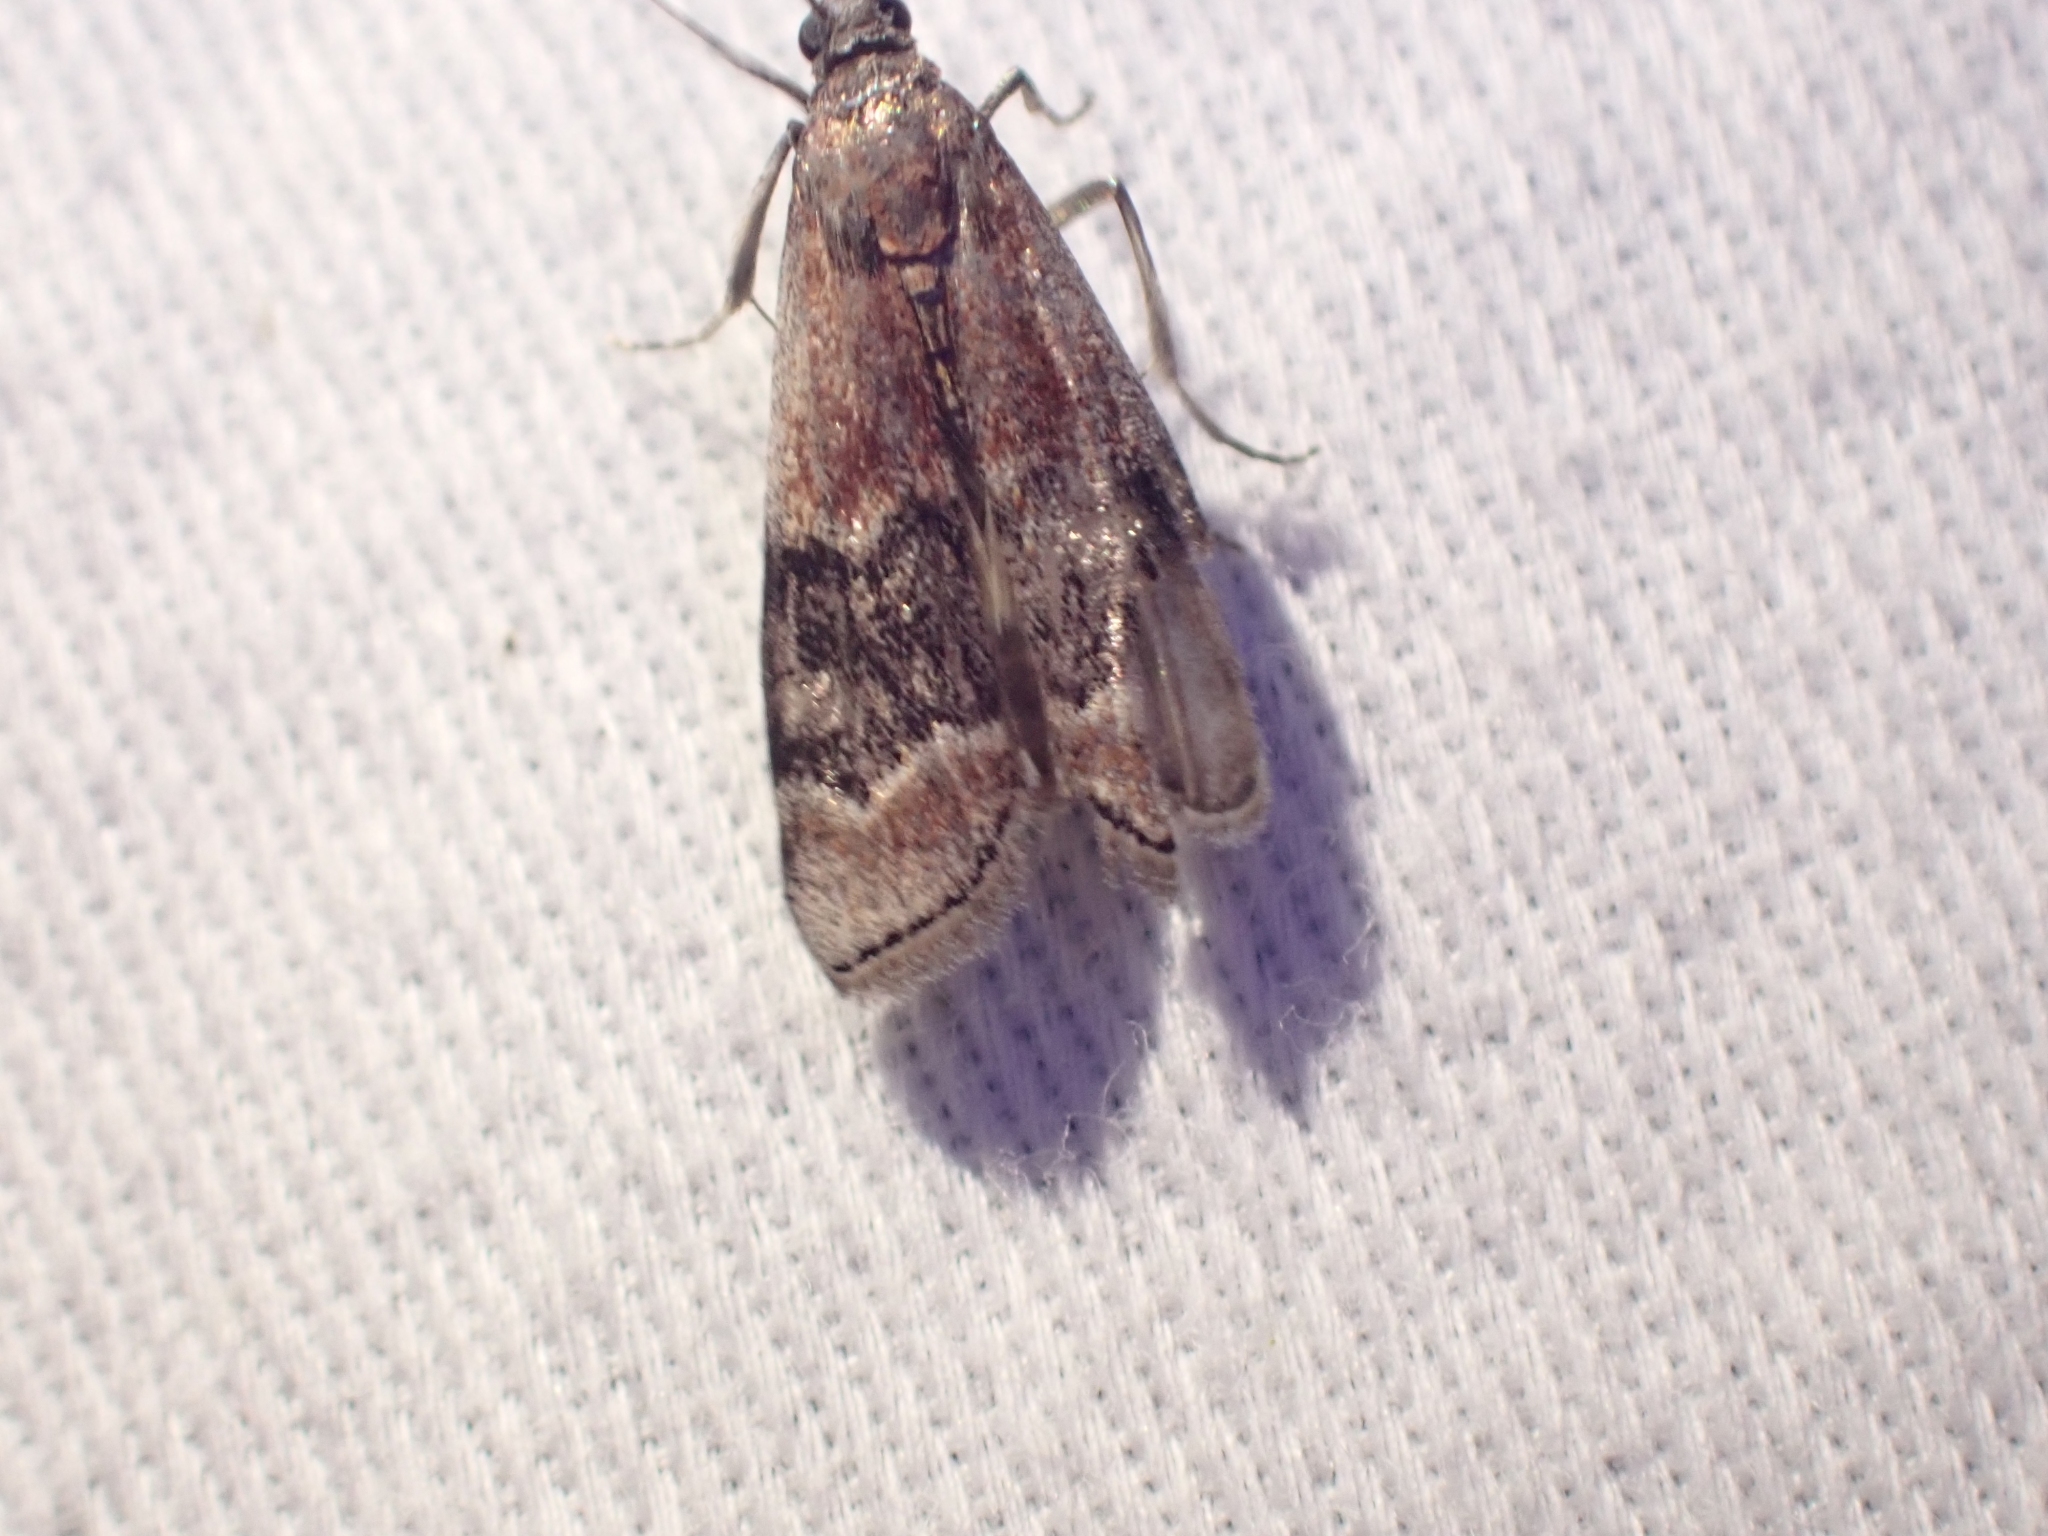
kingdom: Animalia
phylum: Arthropoda
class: Insecta
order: Lepidoptera
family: Pyralidae
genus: Euzophera
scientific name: Euzophera semifuneralis
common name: American plum borer moth
